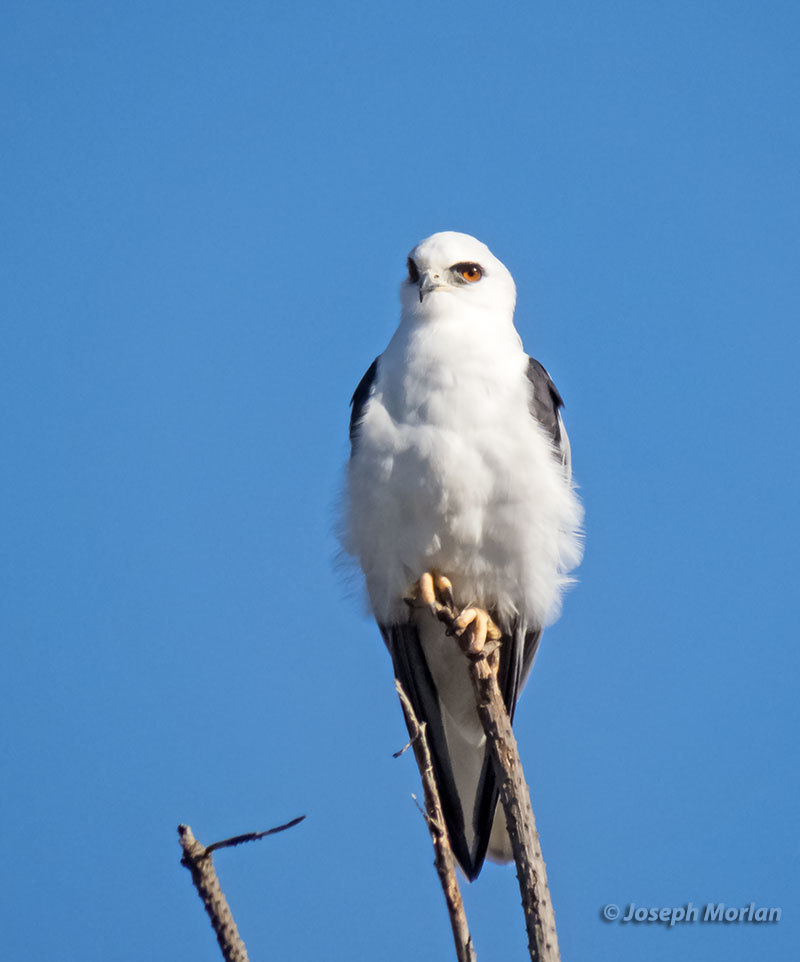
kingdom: Animalia
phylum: Chordata
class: Aves
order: Accipitriformes
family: Accipitridae
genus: Elanus
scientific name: Elanus leucurus
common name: White-tailed kite
